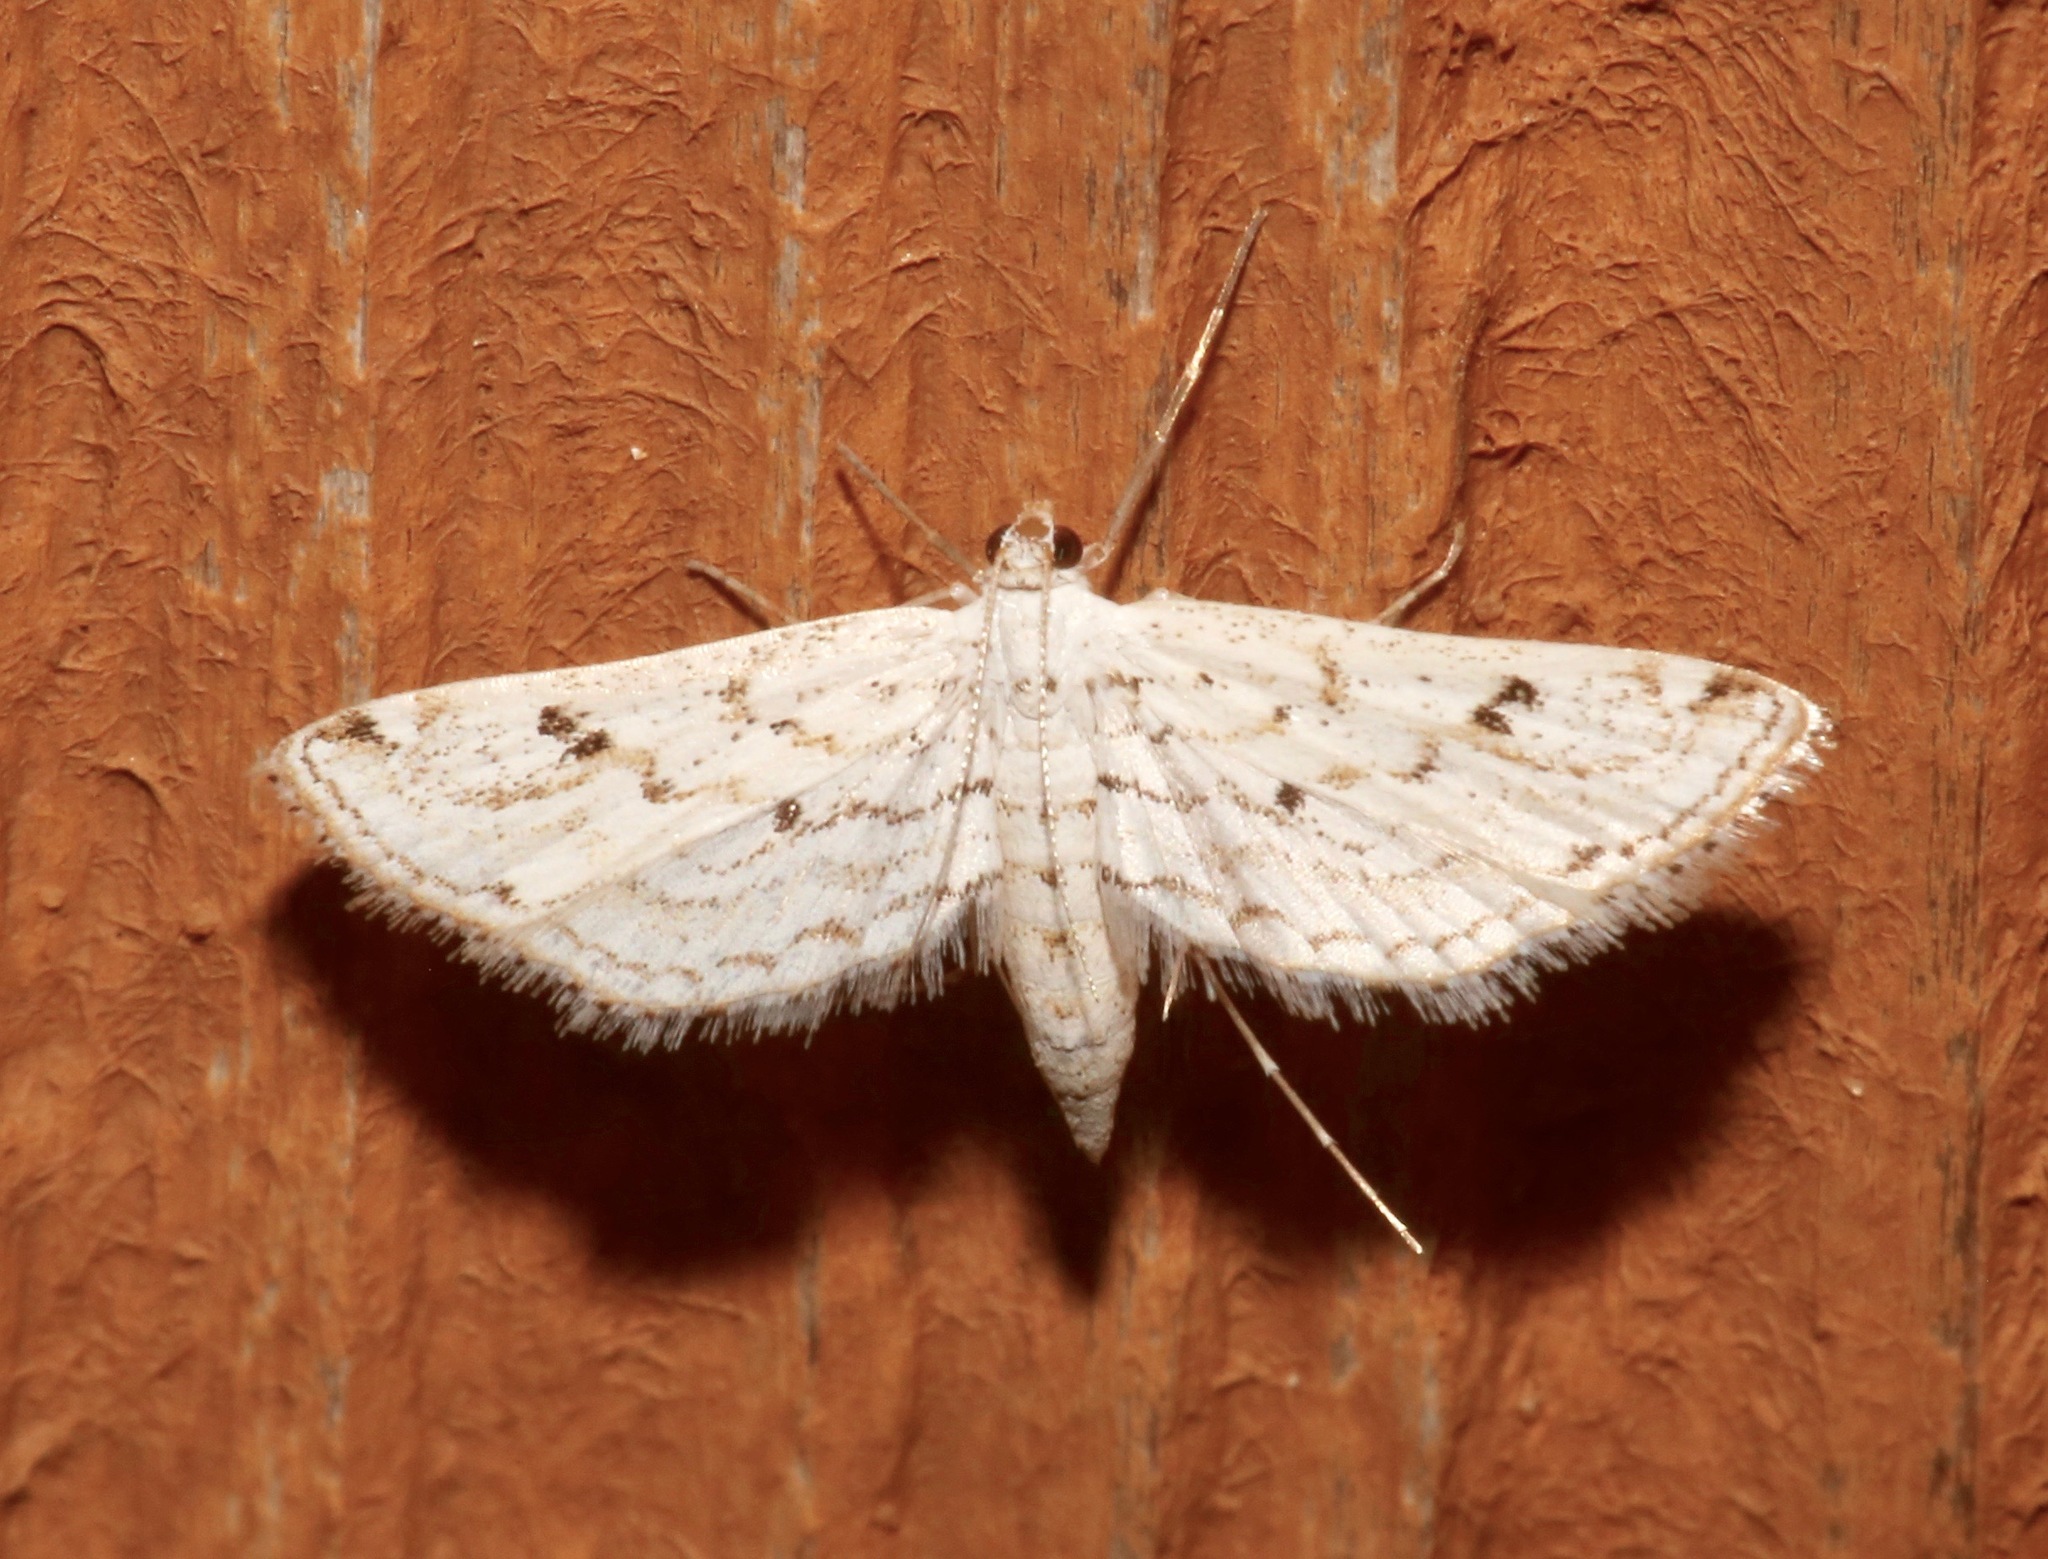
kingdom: Animalia
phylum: Arthropoda
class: Insecta
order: Lepidoptera
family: Crambidae
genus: Parapoynx
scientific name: Parapoynx allionealis
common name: Bladderwort casemaker
